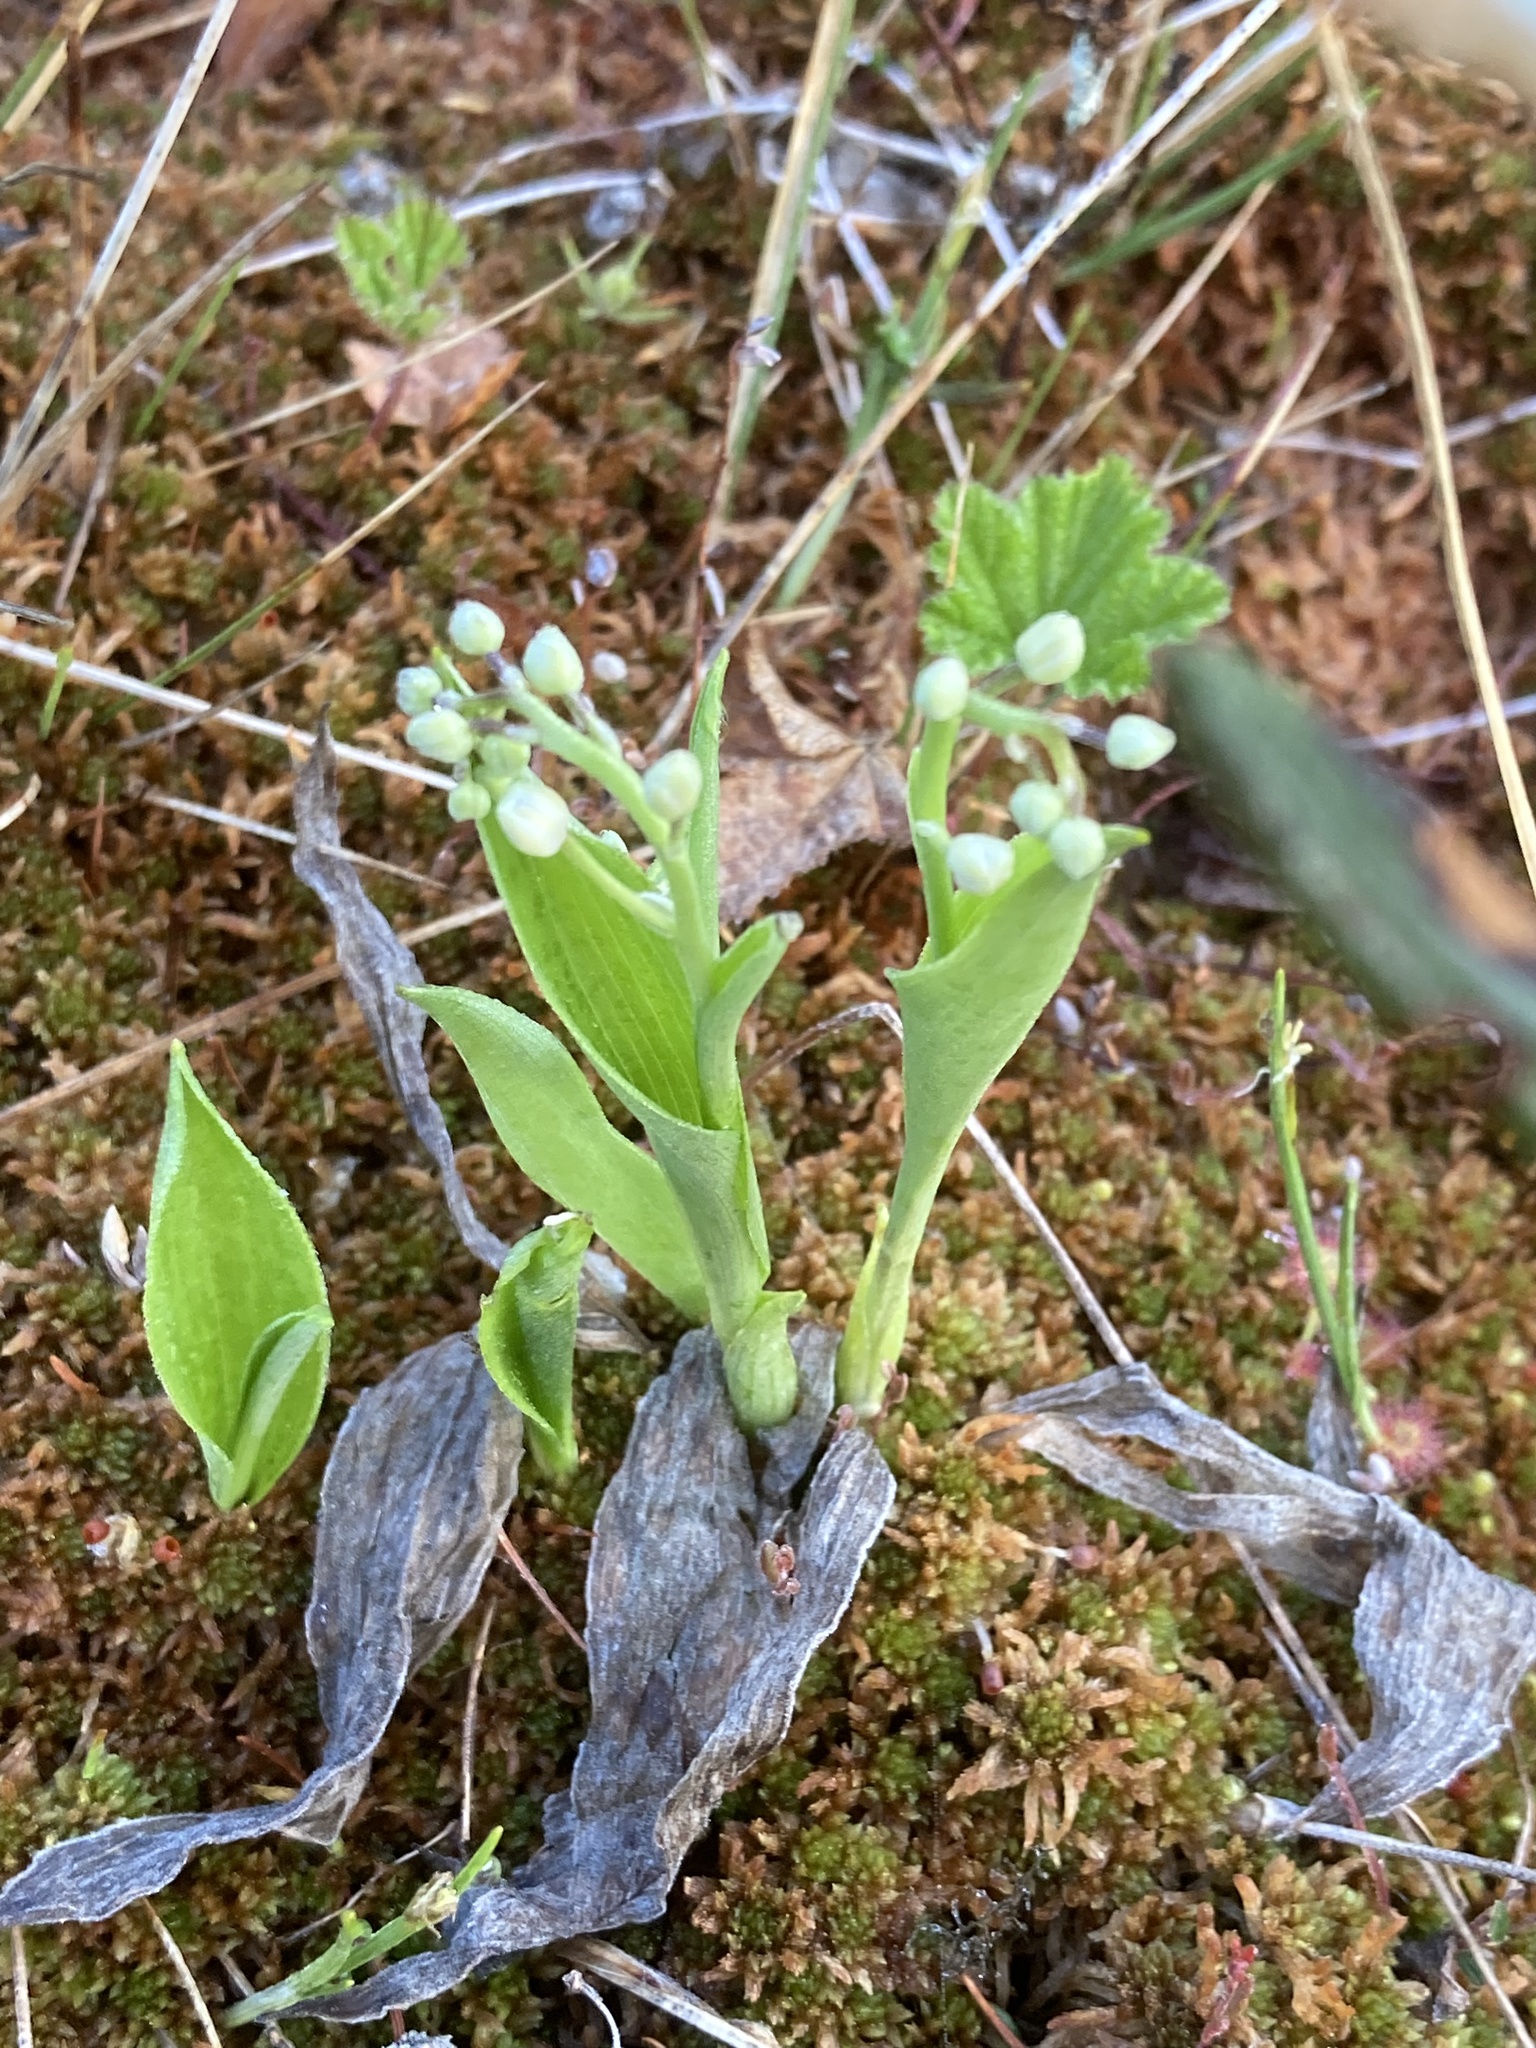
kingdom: Plantae
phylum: Tracheophyta
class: Liliopsida
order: Asparagales
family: Asparagaceae
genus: Maianthemum
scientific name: Maianthemum trifolium
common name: Swamp false solomon's seal
